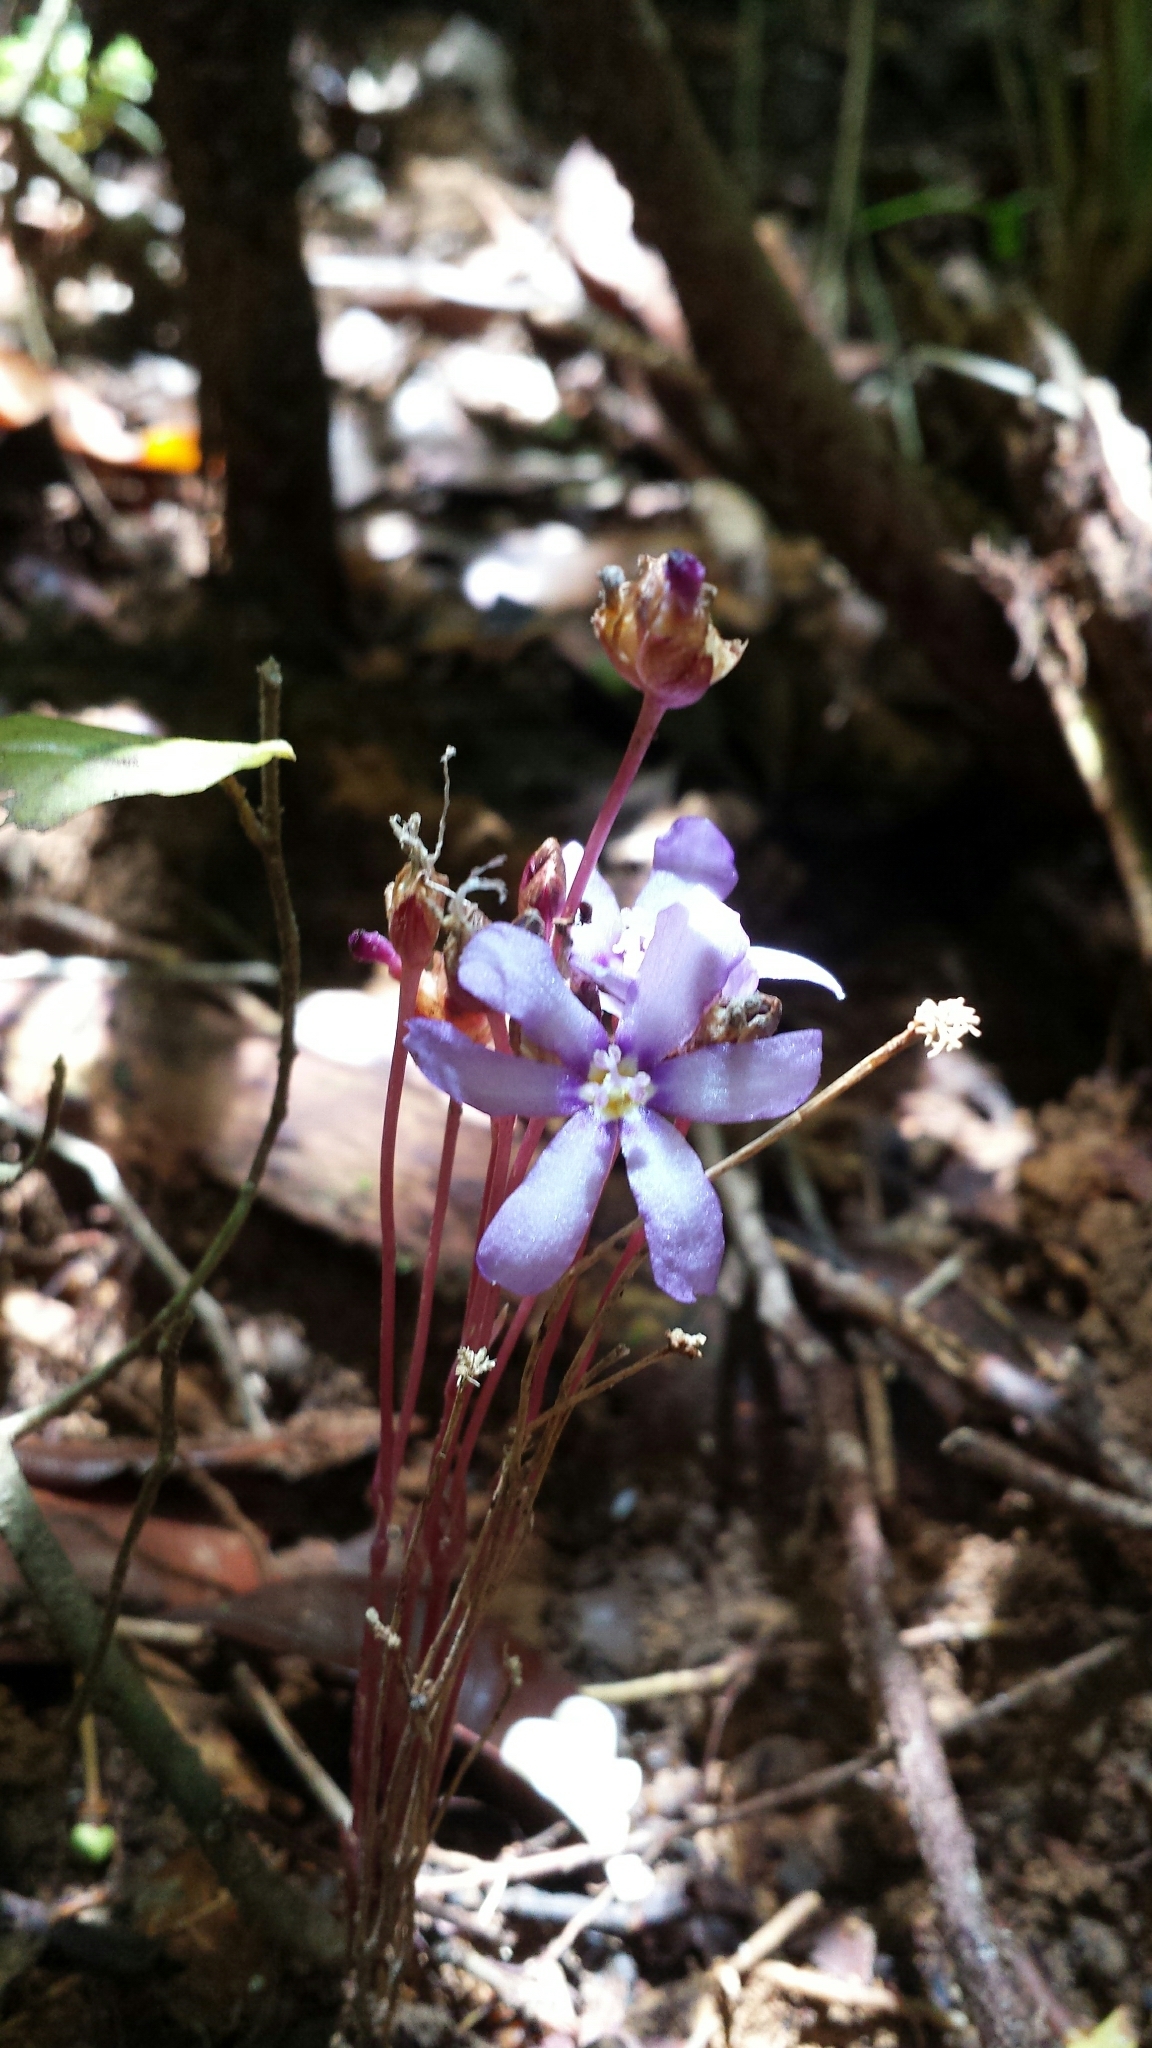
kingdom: Plantae
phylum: Tracheophyta
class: Liliopsida
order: Asparagales
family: Iridaceae
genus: Geosiris
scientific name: Geosiris aphylla
